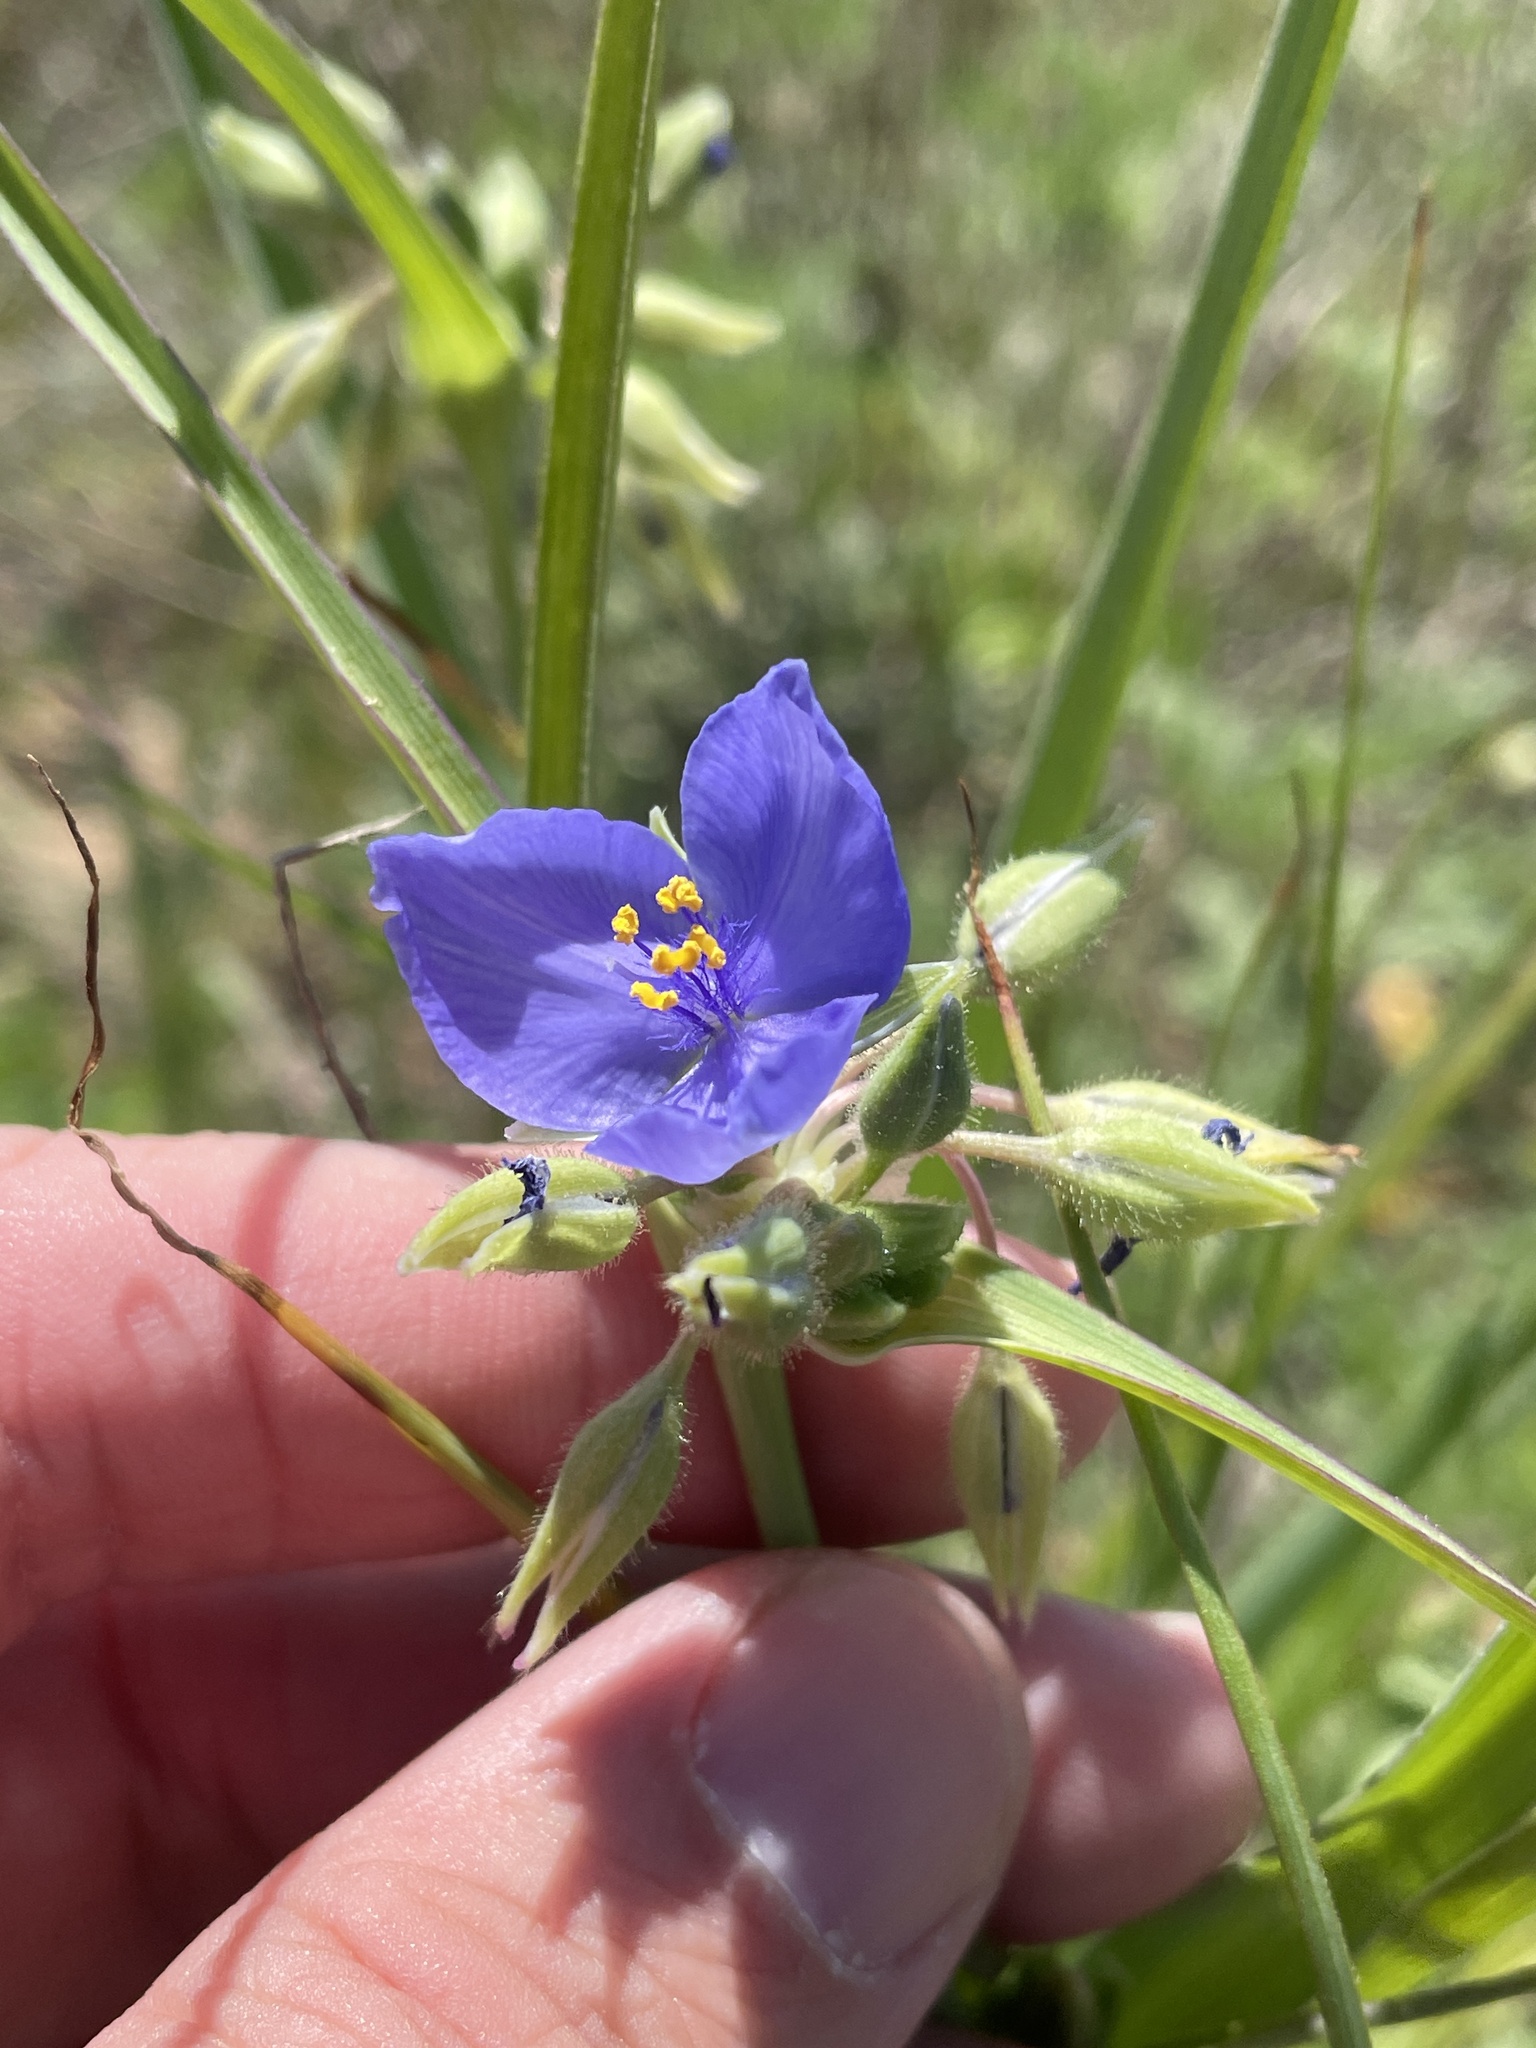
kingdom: Plantae
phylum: Tracheophyta
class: Liliopsida
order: Commelinales
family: Commelinaceae
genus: Tradescantia
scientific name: Tradescantia occidentalis
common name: Prairie spiderwort
